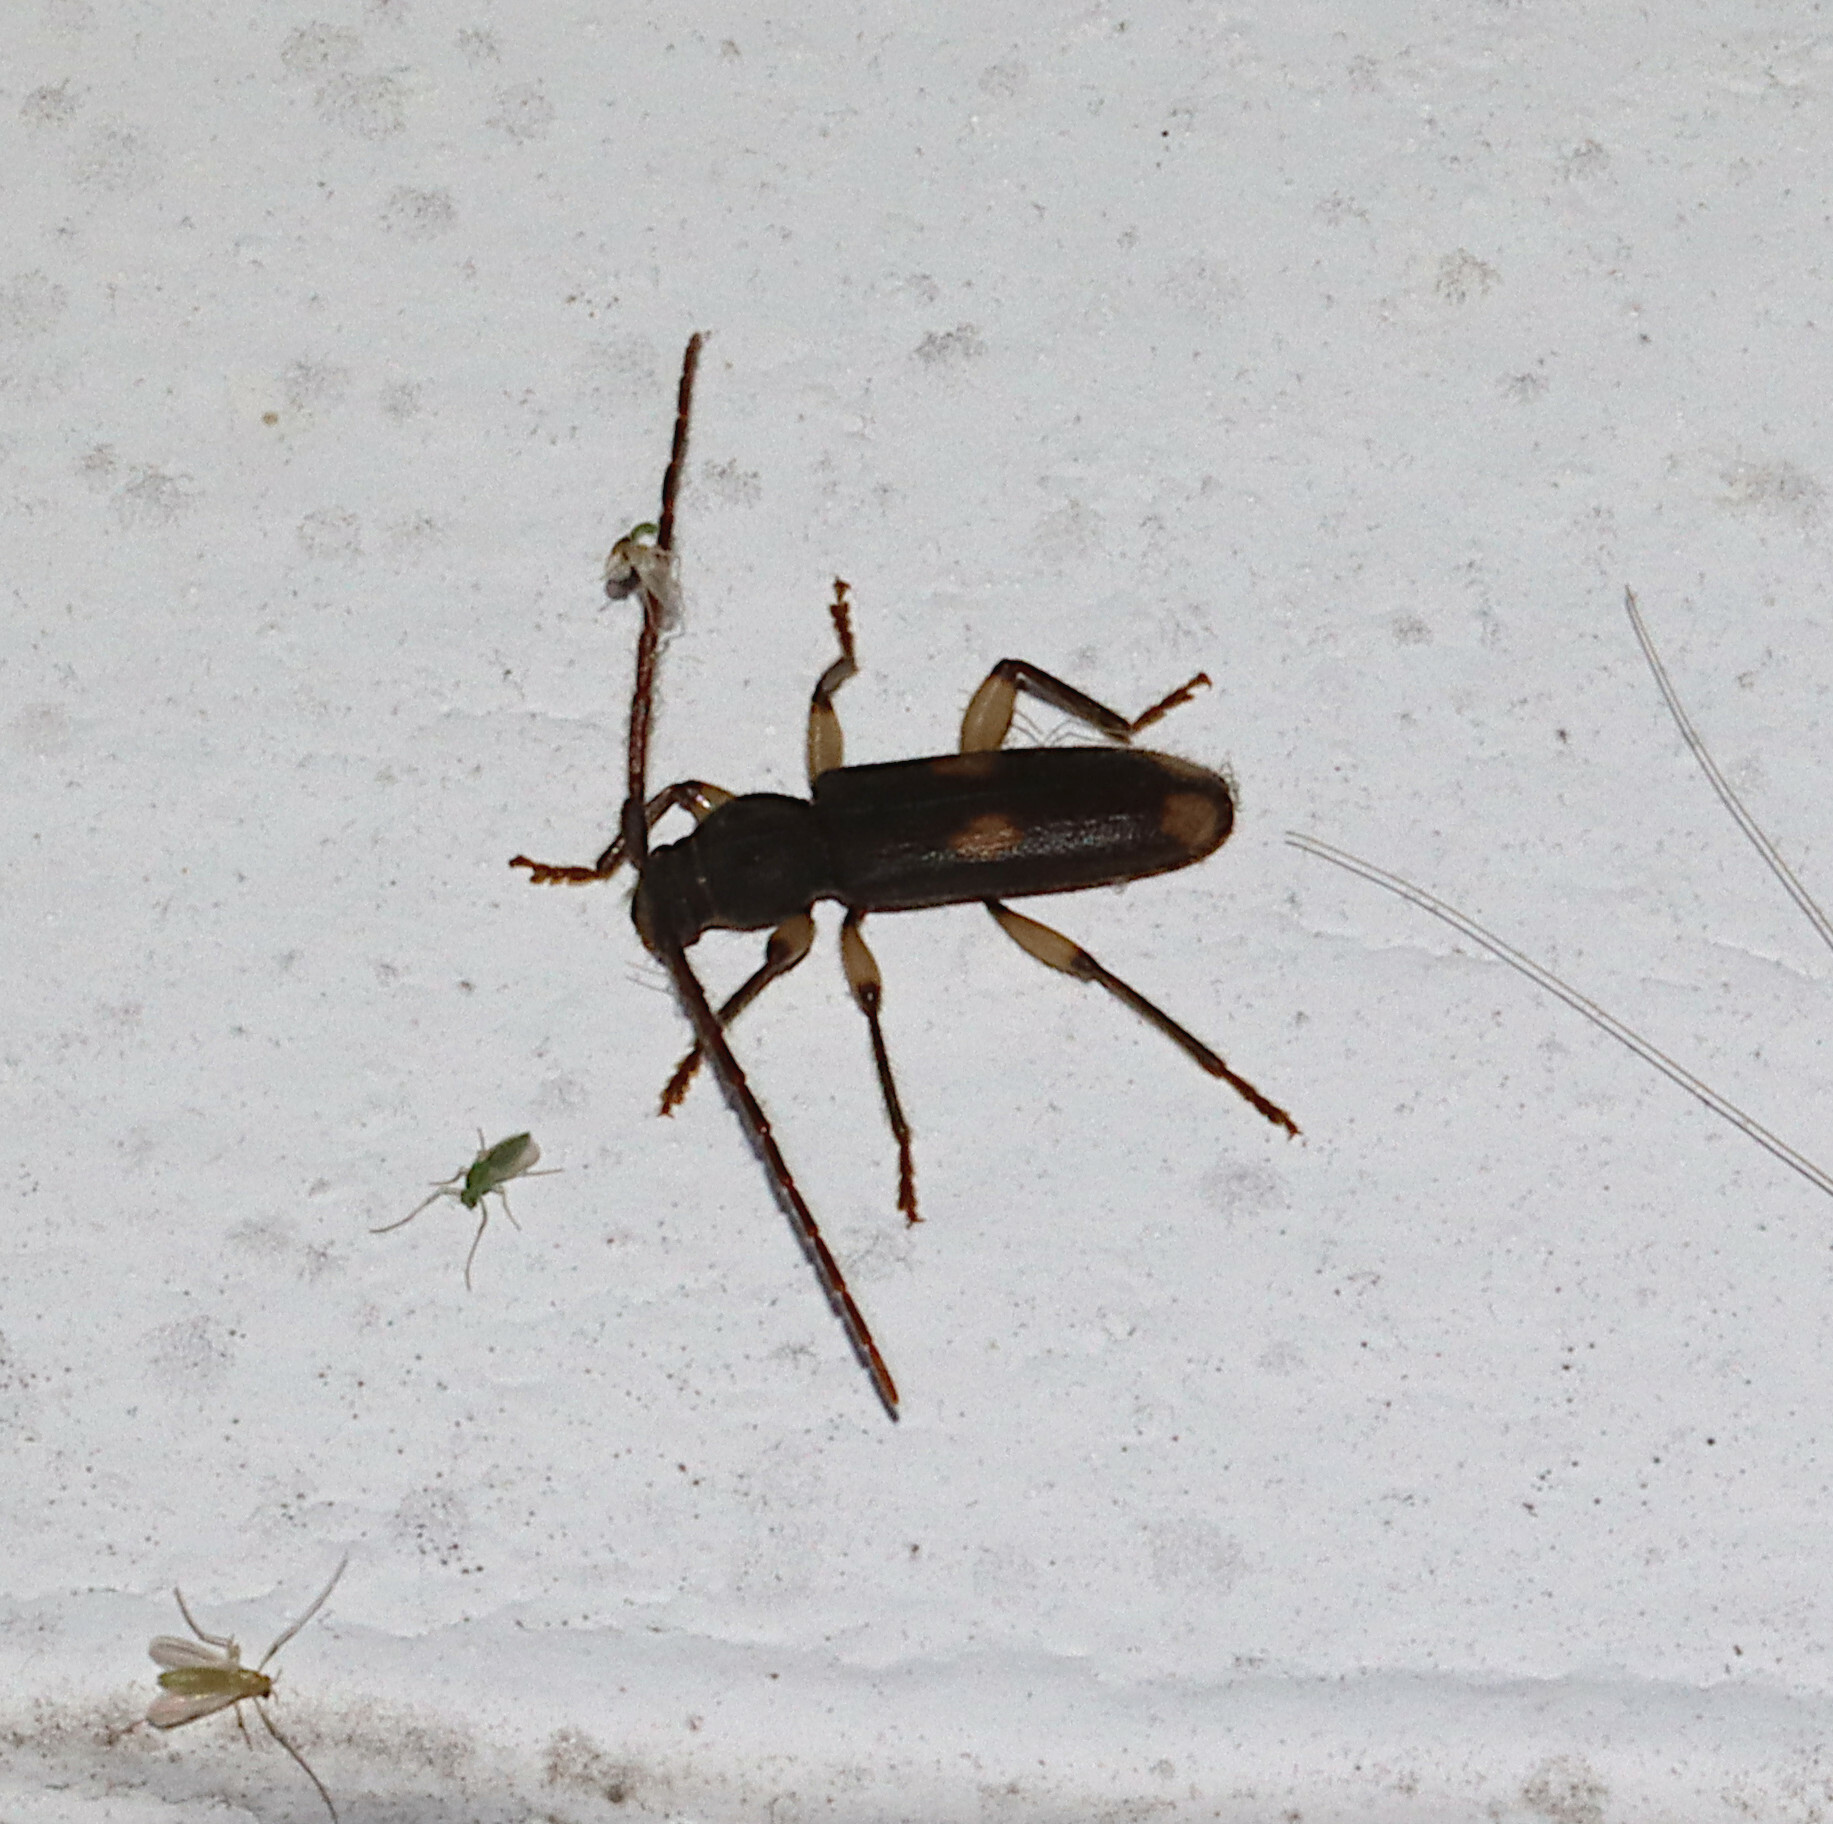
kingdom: Animalia
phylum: Arthropoda
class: Insecta
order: Coleoptera
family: Cerambycidae
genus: Tylonotus
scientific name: Tylonotus bimaculatus
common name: Ash and privet borer
